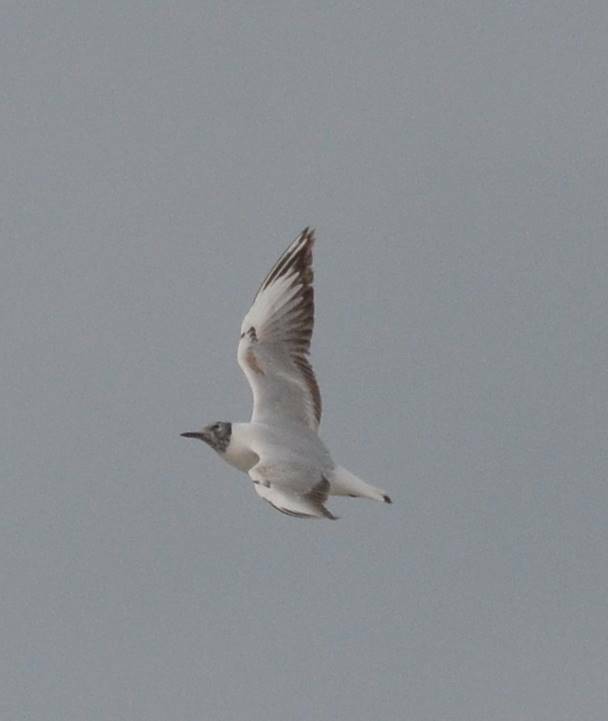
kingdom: Animalia
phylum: Chordata
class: Aves
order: Charadriiformes
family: Laridae
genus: Chroicocephalus
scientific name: Chroicocephalus ridibundus
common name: Black-headed gull
